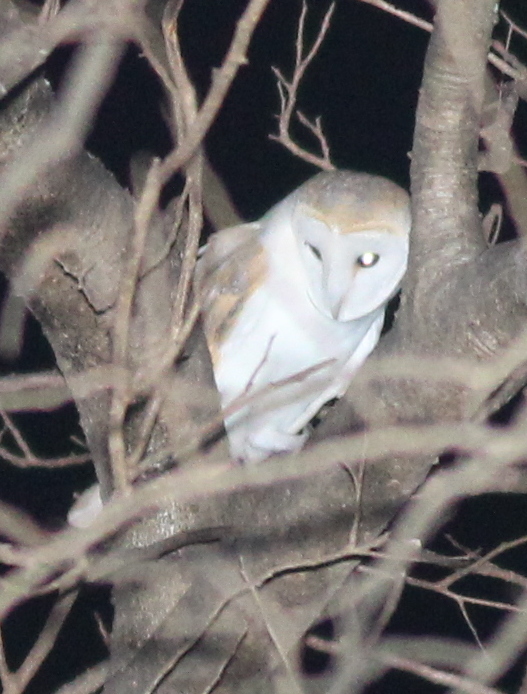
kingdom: Animalia
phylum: Chordata
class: Aves
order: Strigiformes
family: Tytonidae
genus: Tyto
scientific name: Tyto alba
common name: Barn owl
